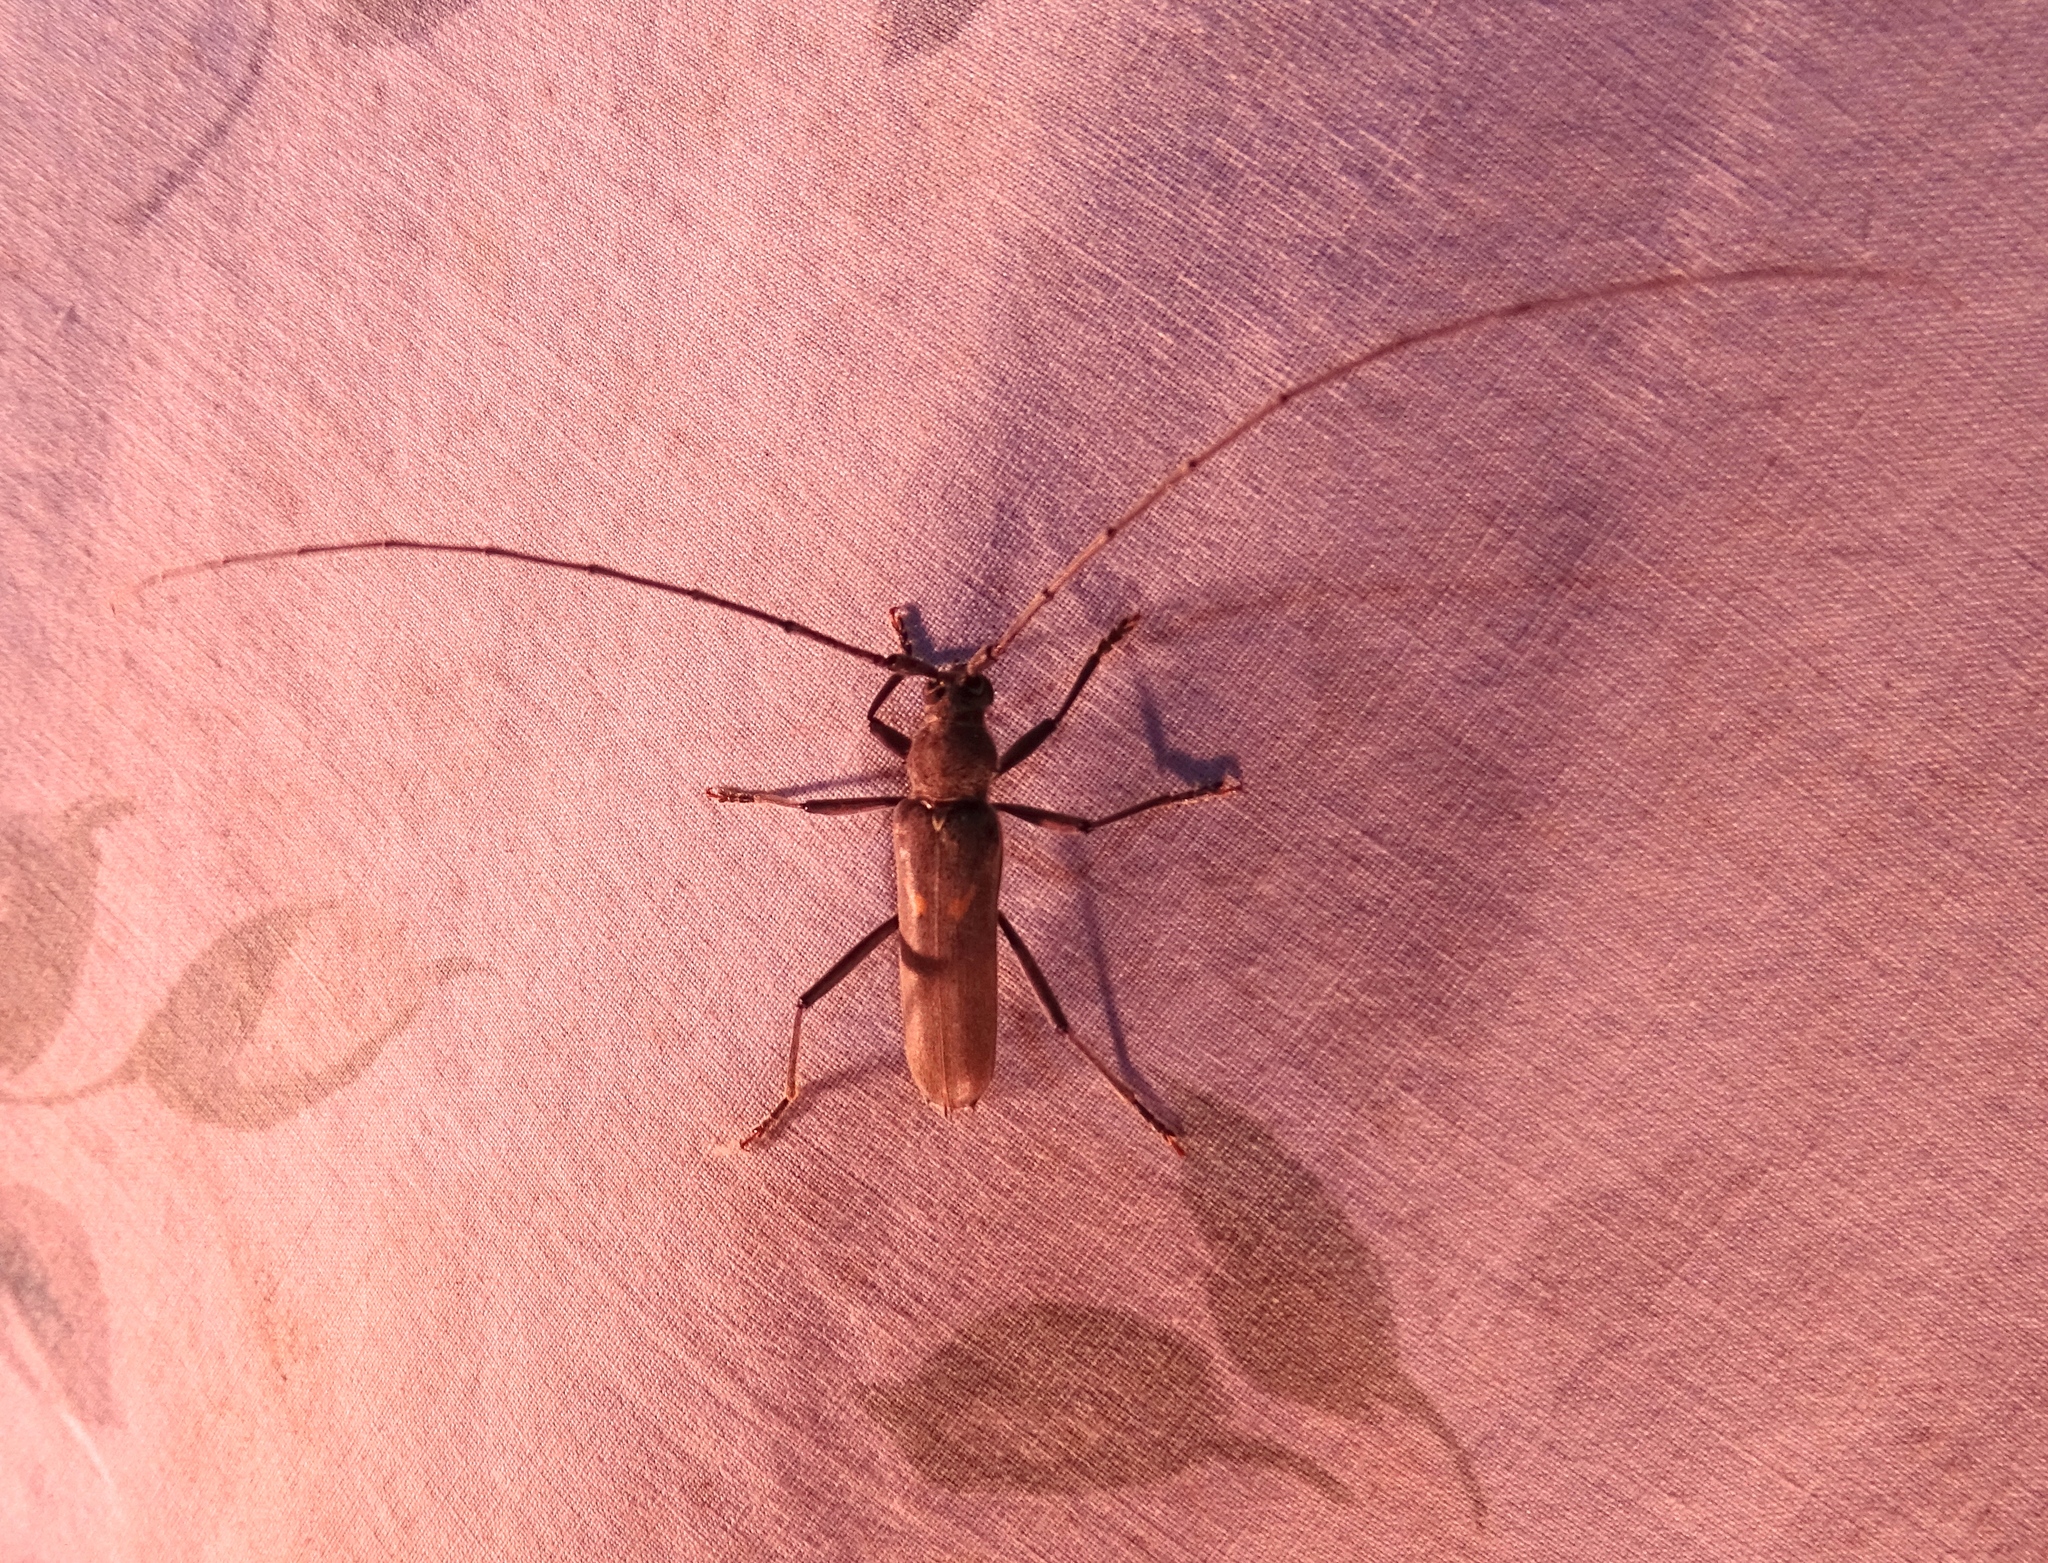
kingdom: Animalia
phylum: Arthropoda
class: Insecta
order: Coleoptera
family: Cerambycidae
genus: Knulliana
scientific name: Knulliana cincta
